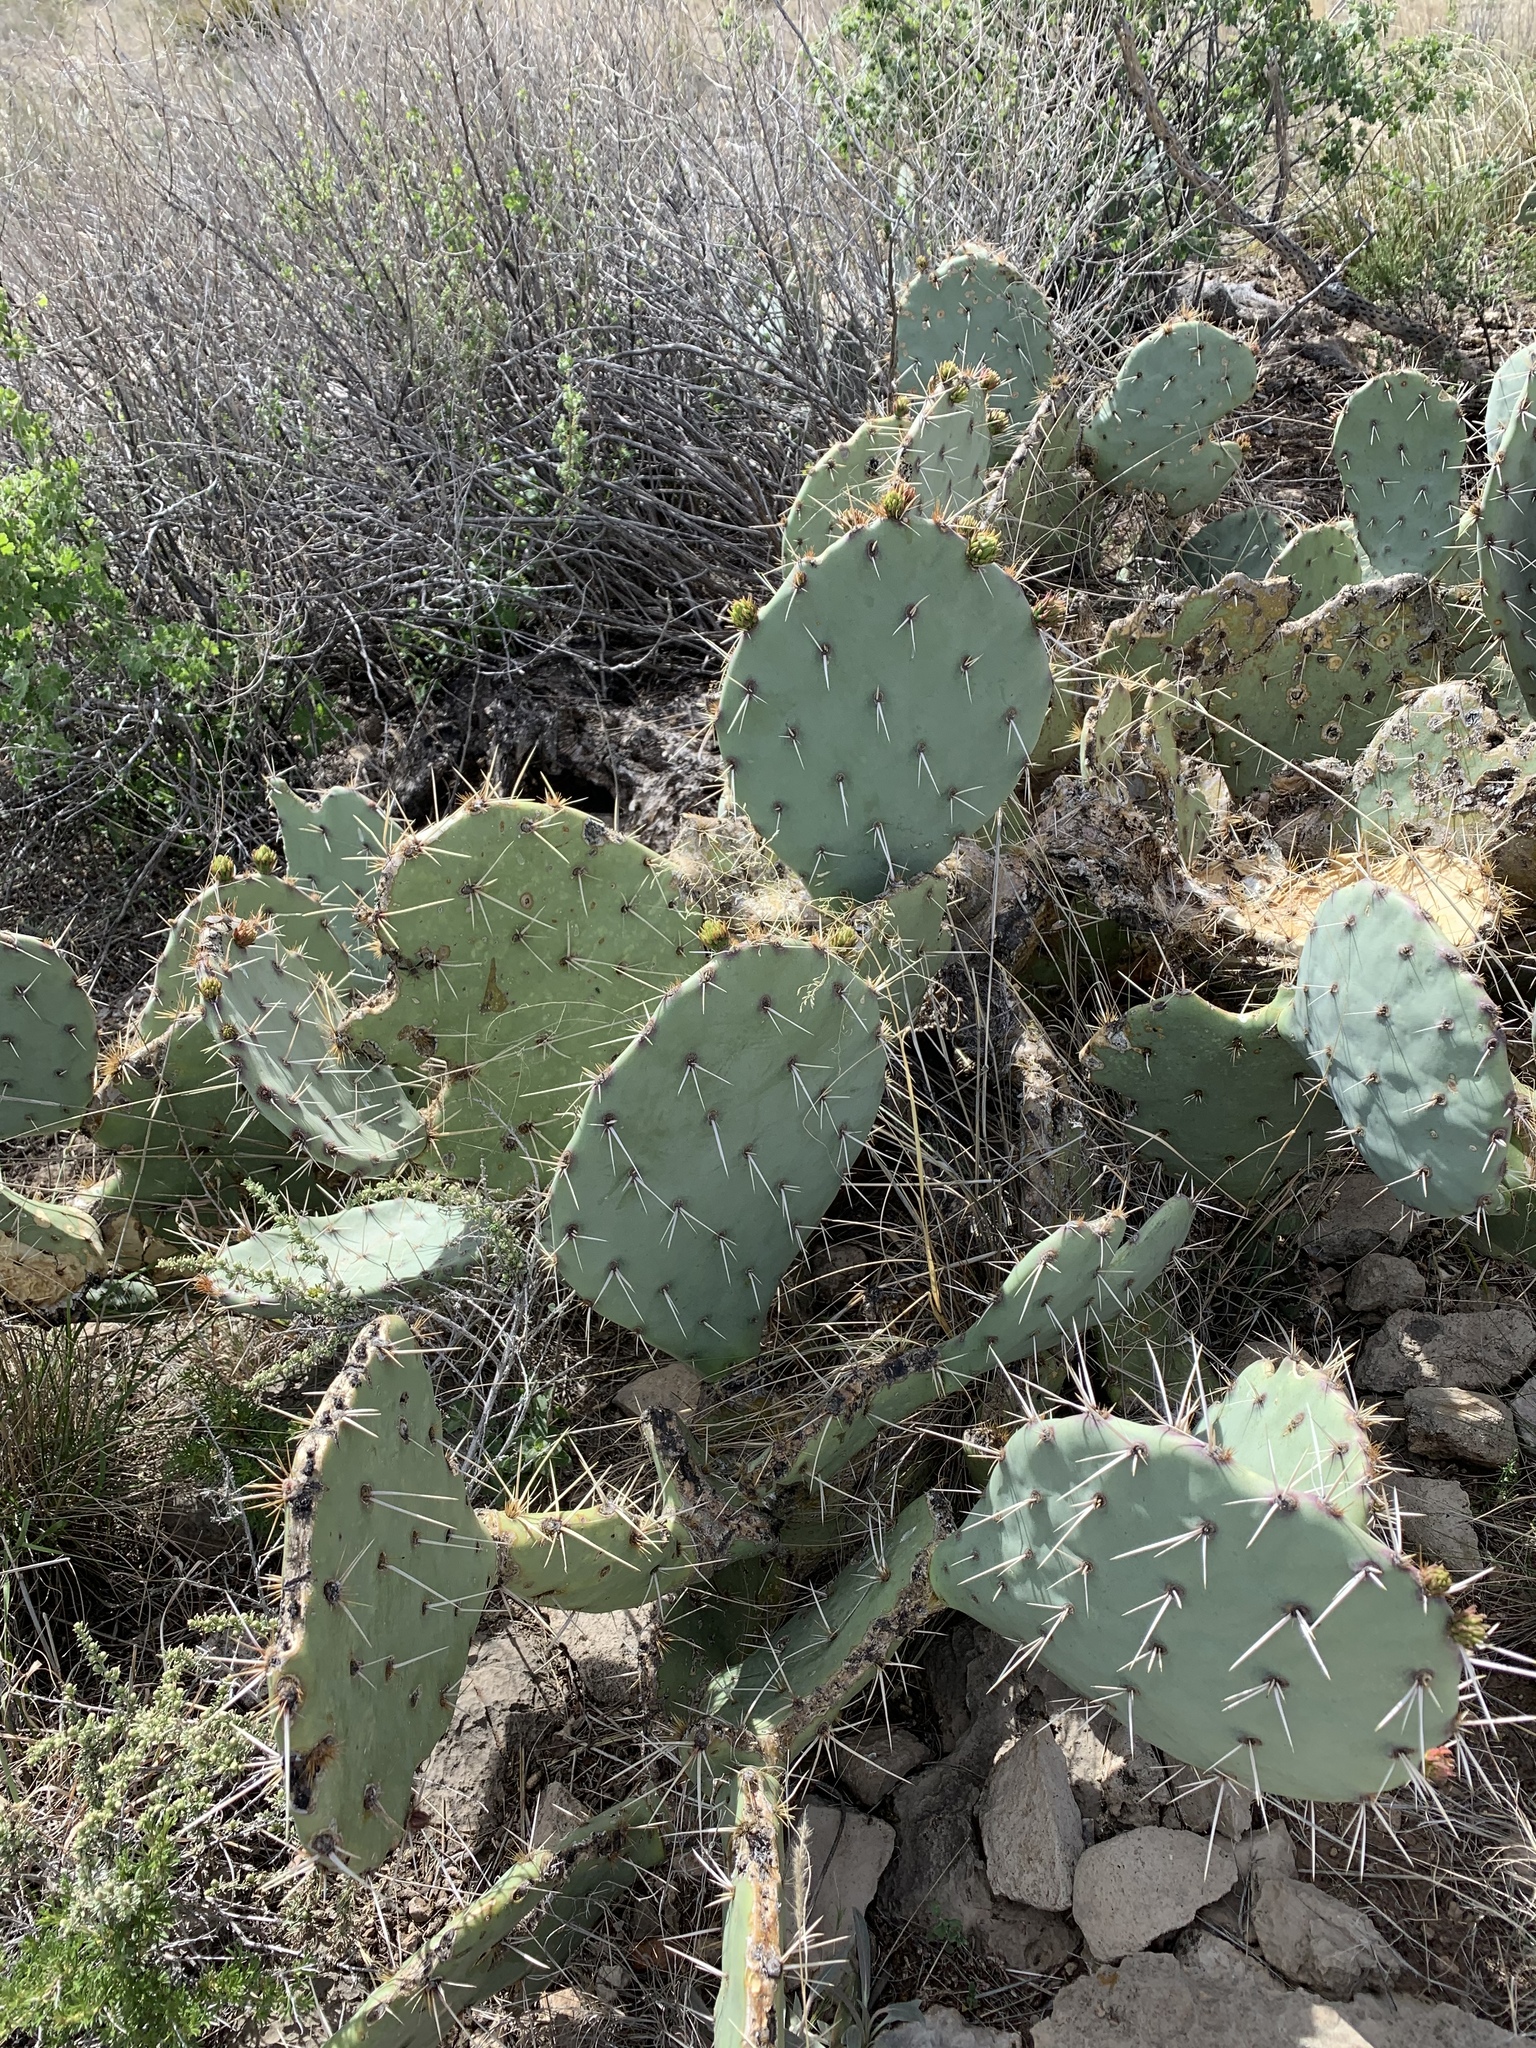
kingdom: Plantae
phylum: Tracheophyta
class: Magnoliopsida
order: Caryophyllales
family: Cactaceae
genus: Opuntia
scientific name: Opuntia engelmannii
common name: Cactus-apple
